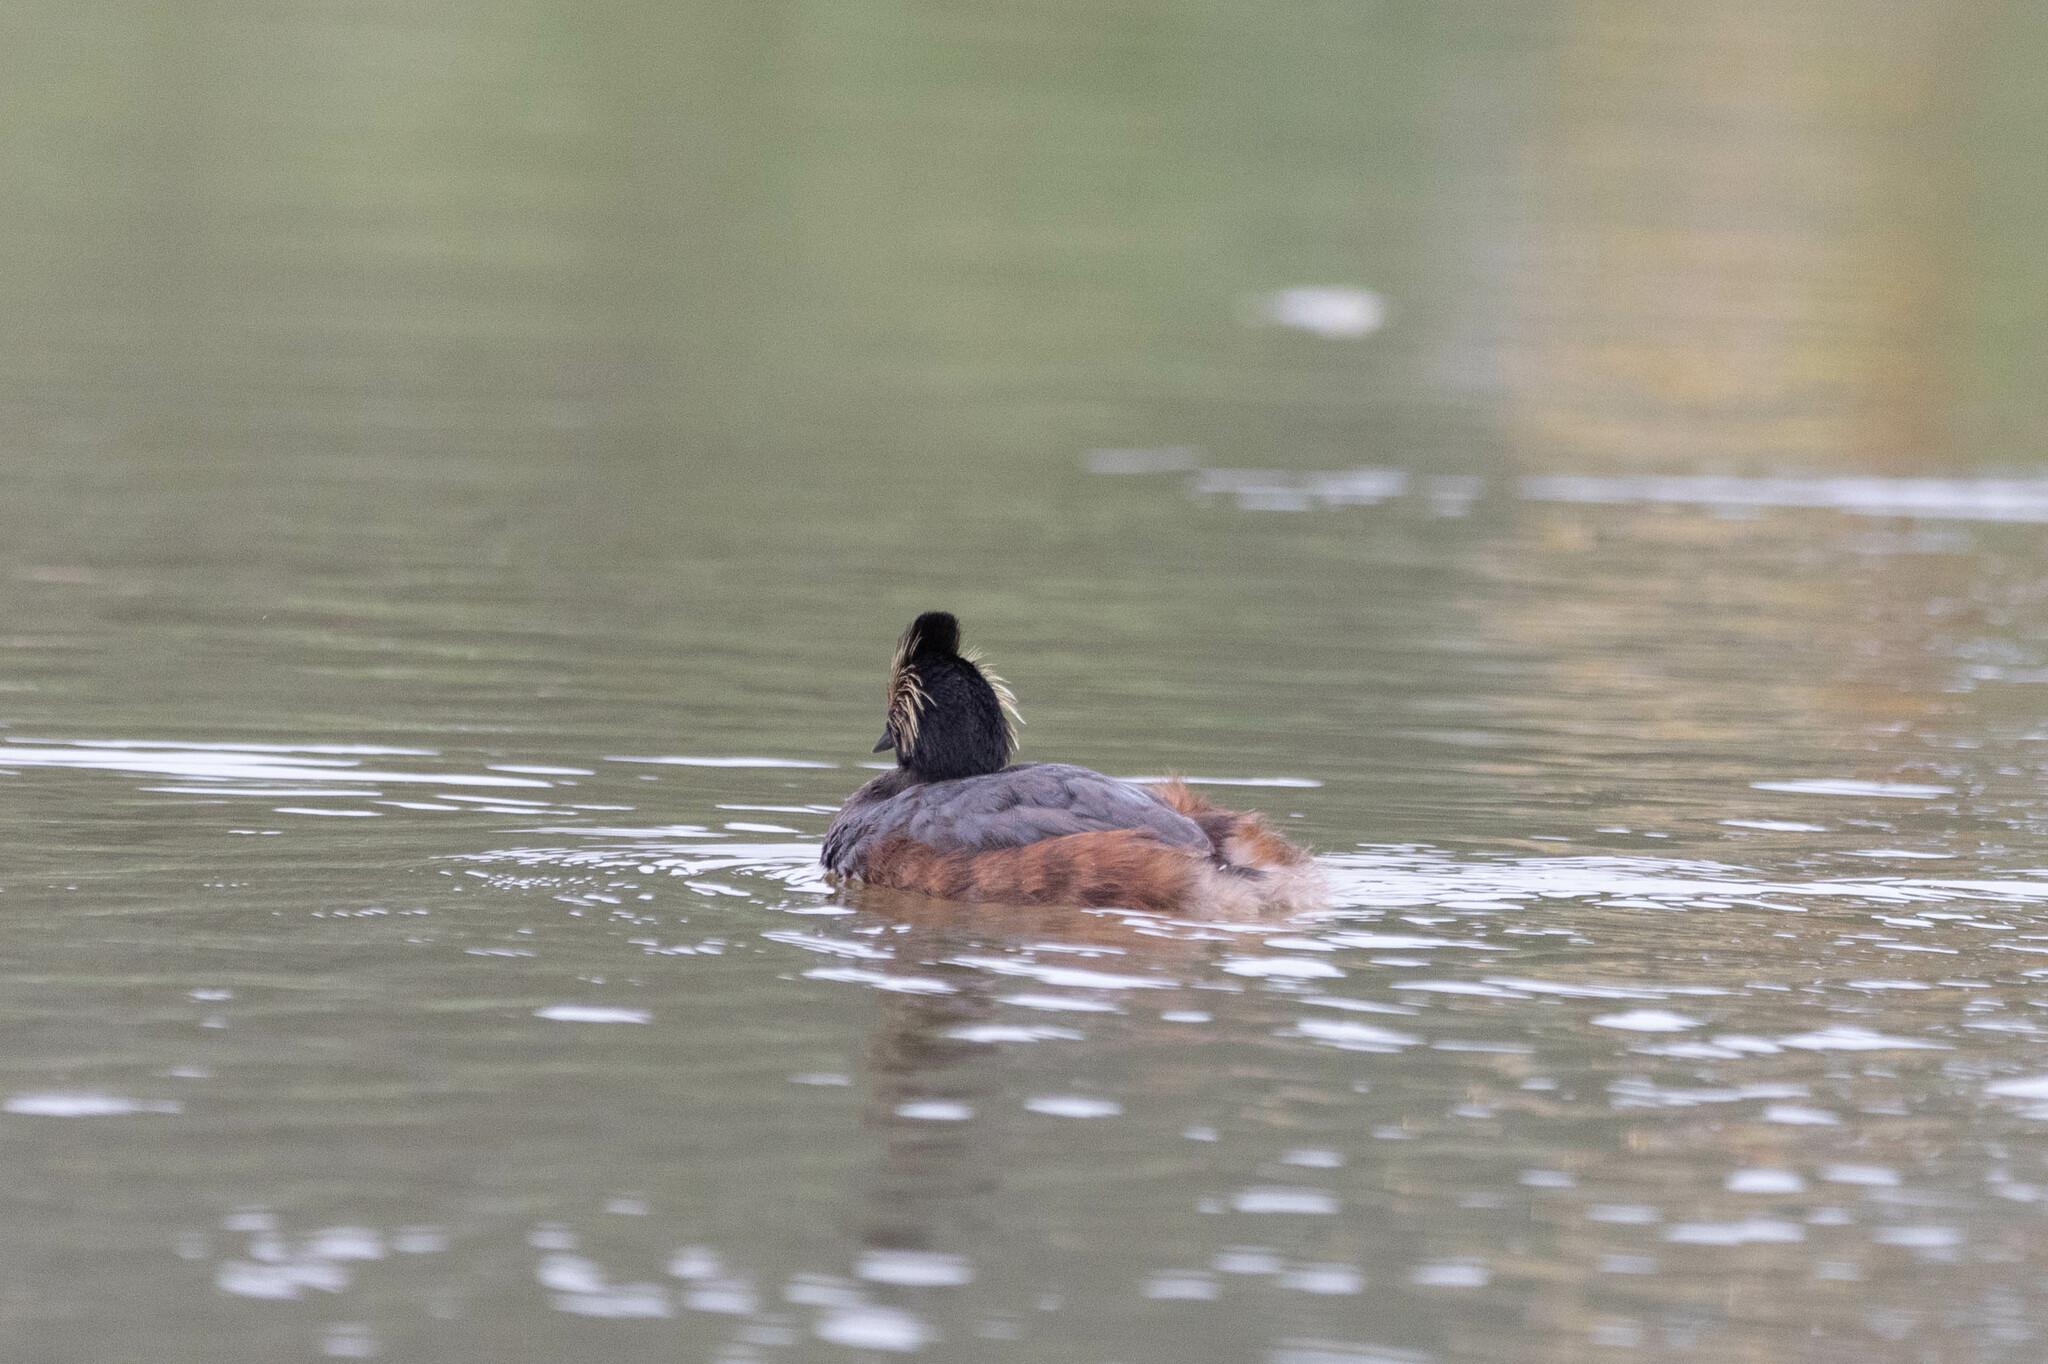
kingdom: Animalia
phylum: Chordata
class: Aves
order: Podicipediformes
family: Podicipedidae
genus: Podiceps
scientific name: Podiceps nigricollis
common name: Black-necked grebe
